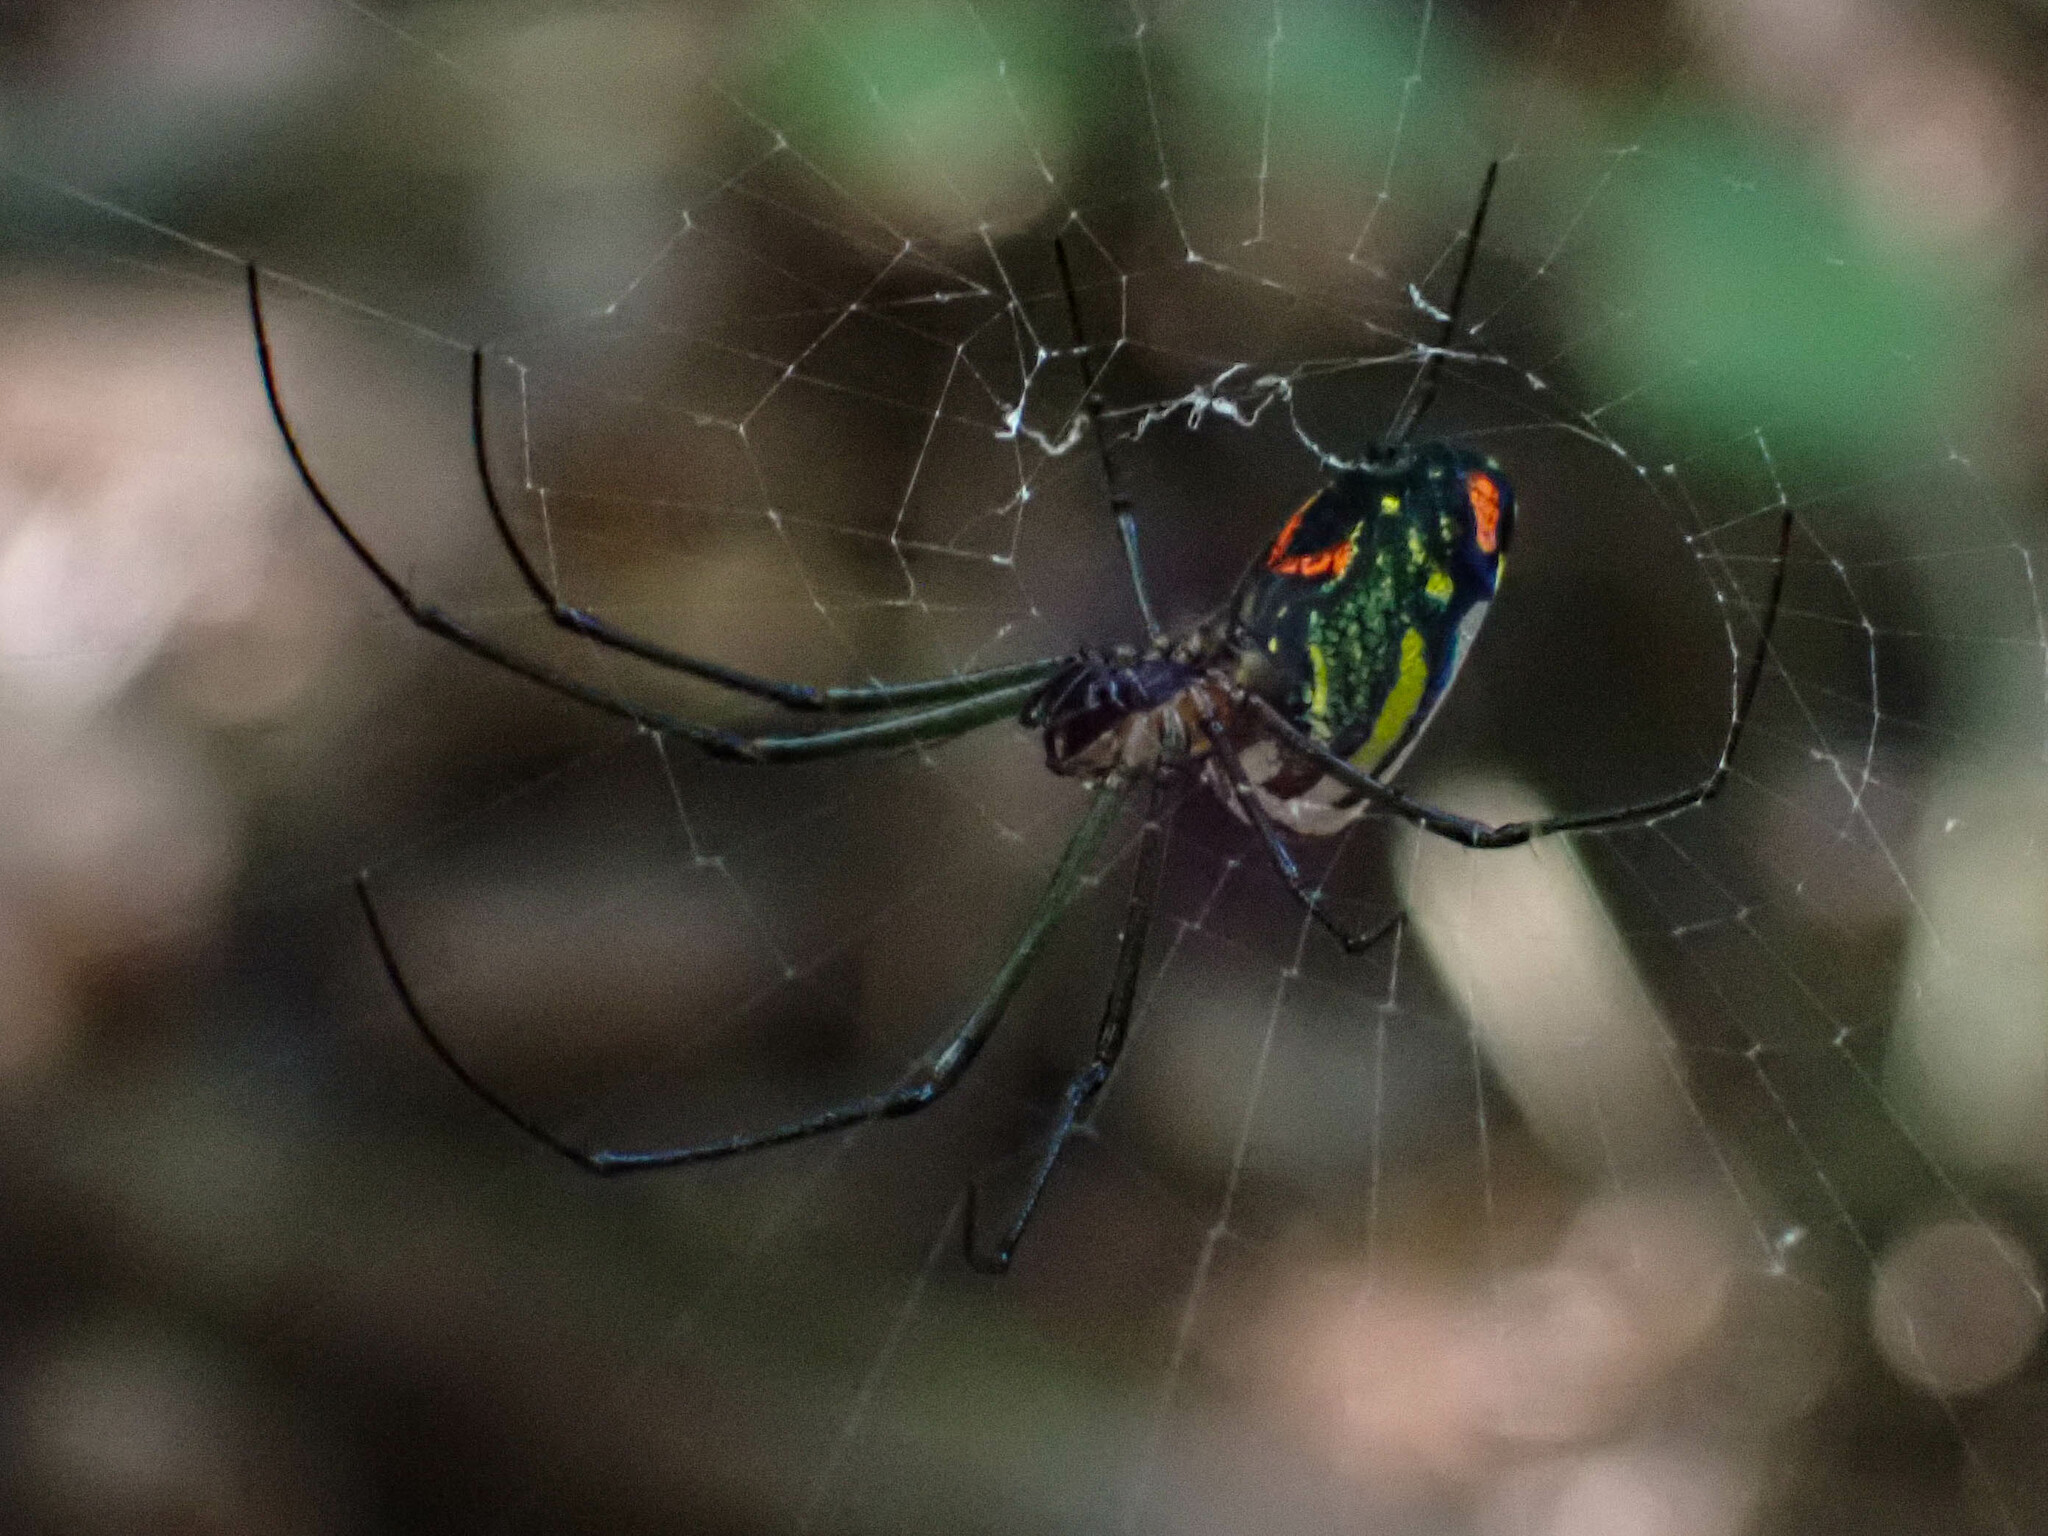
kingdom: Animalia
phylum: Arthropoda
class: Arachnida
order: Araneae
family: Tetragnathidae
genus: Leucauge
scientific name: Leucauge mariana
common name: Longjawed orb weavers
